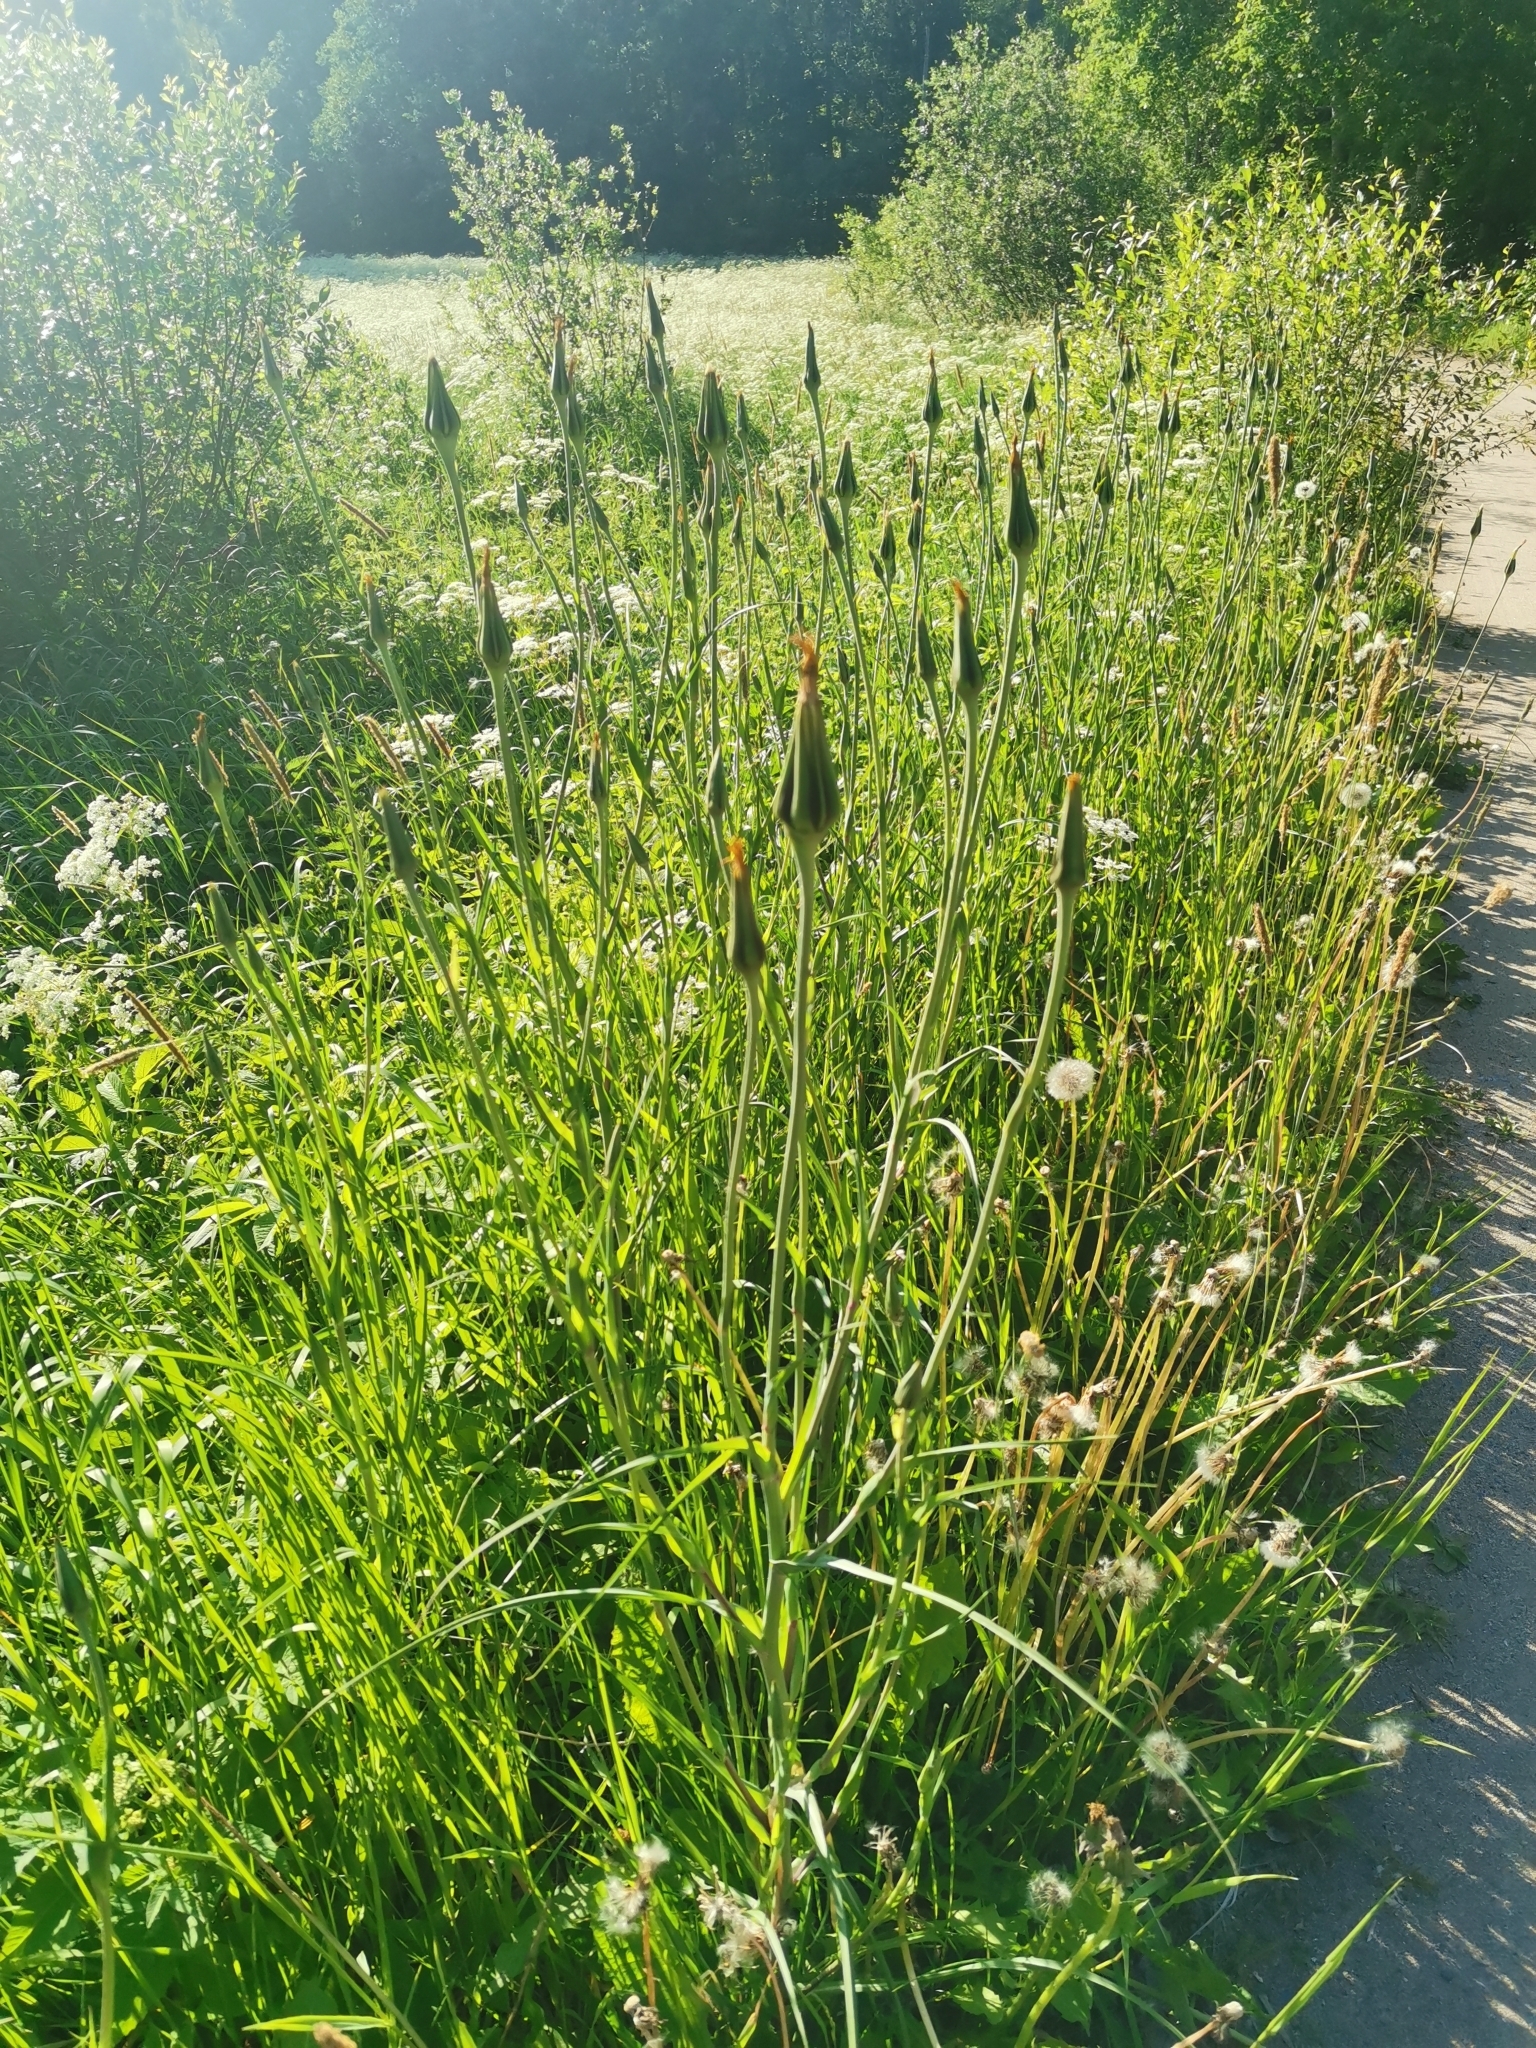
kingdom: Plantae
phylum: Tracheophyta
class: Magnoliopsida
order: Asterales
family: Asteraceae
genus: Tragopogon
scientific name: Tragopogon pratensis
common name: Goat's-beard
